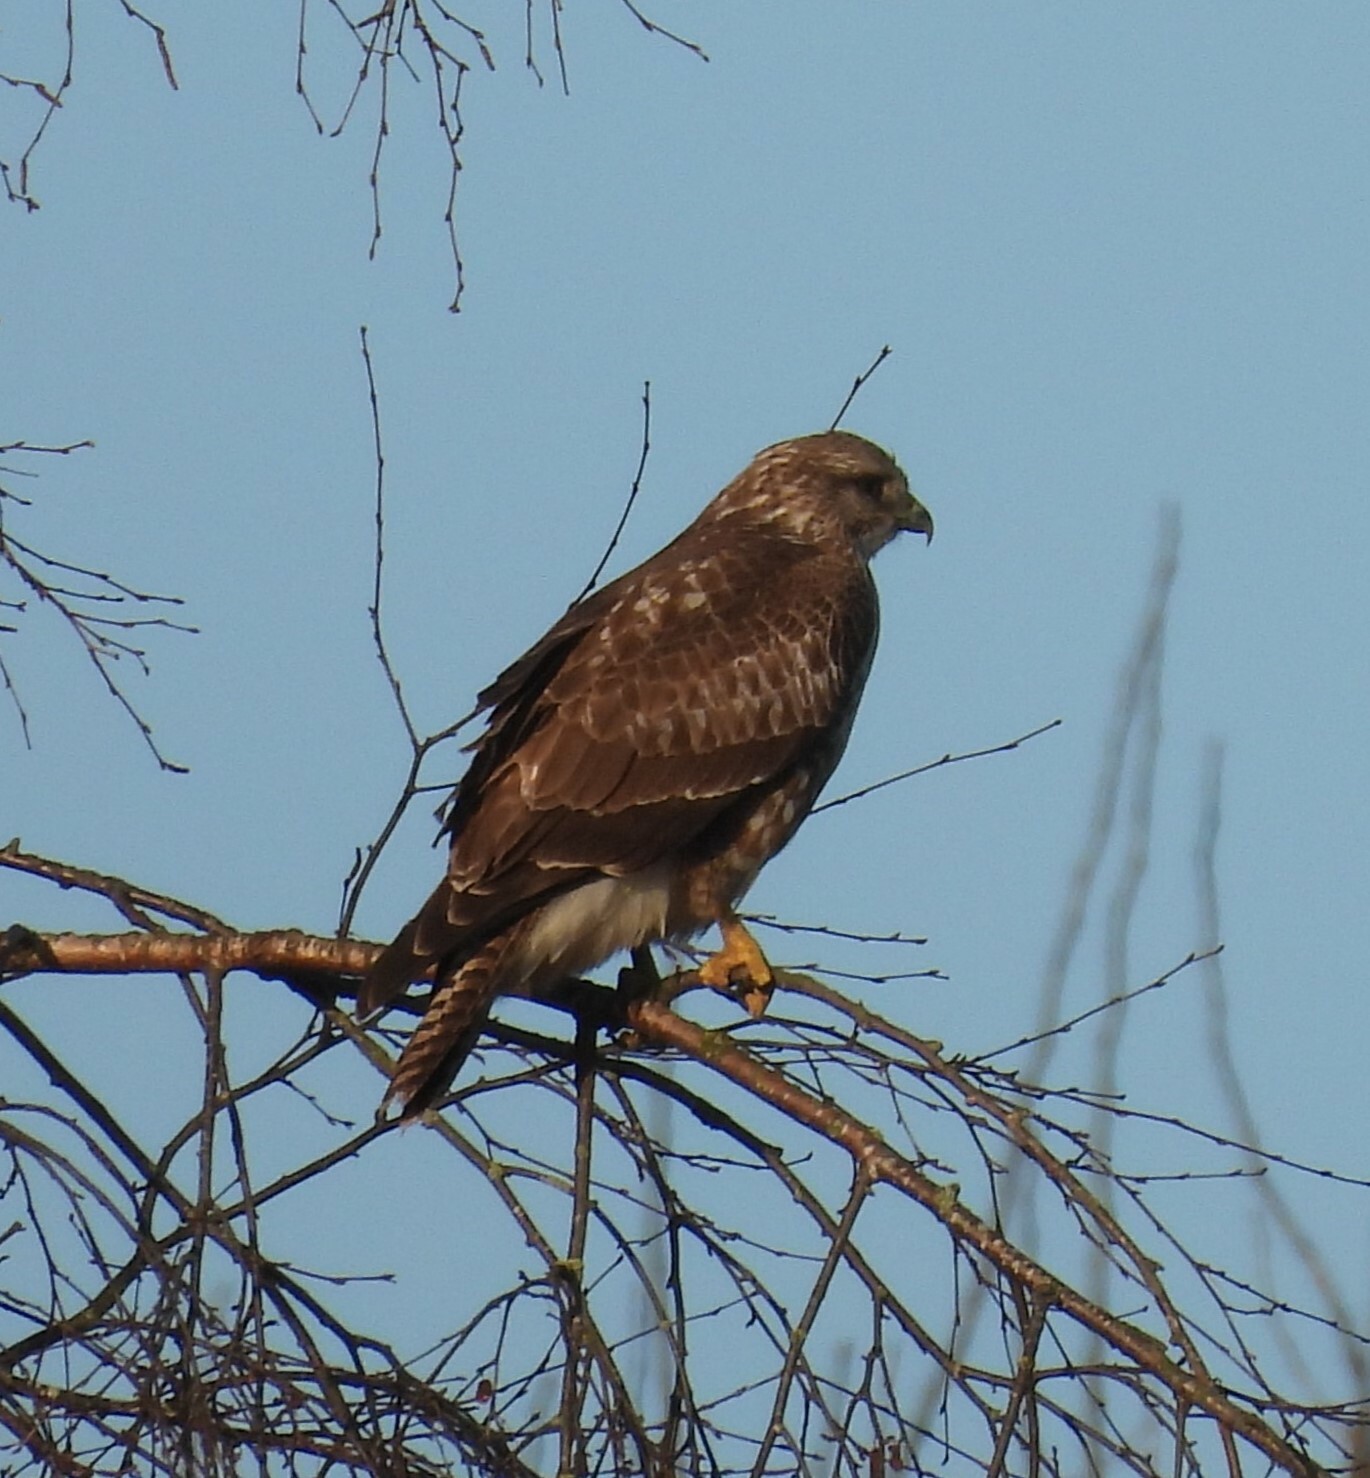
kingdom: Animalia
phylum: Chordata
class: Aves
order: Accipitriformes
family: Accipitridae
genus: Buteo
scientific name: Buteo buteo
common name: Common buzzard
